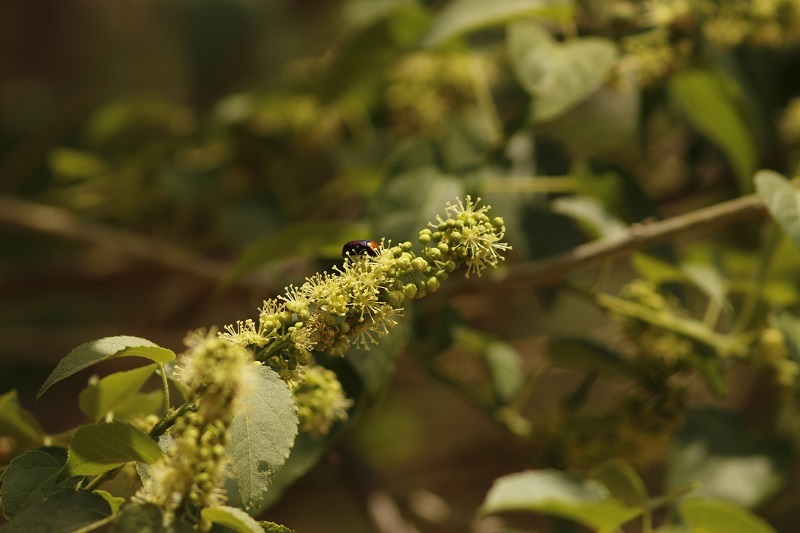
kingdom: Animalia
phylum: Arthropoda
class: Insecta
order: Coleoptera
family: Scarabaeidae
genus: Leucocelis
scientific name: Leucocelis amethystina
